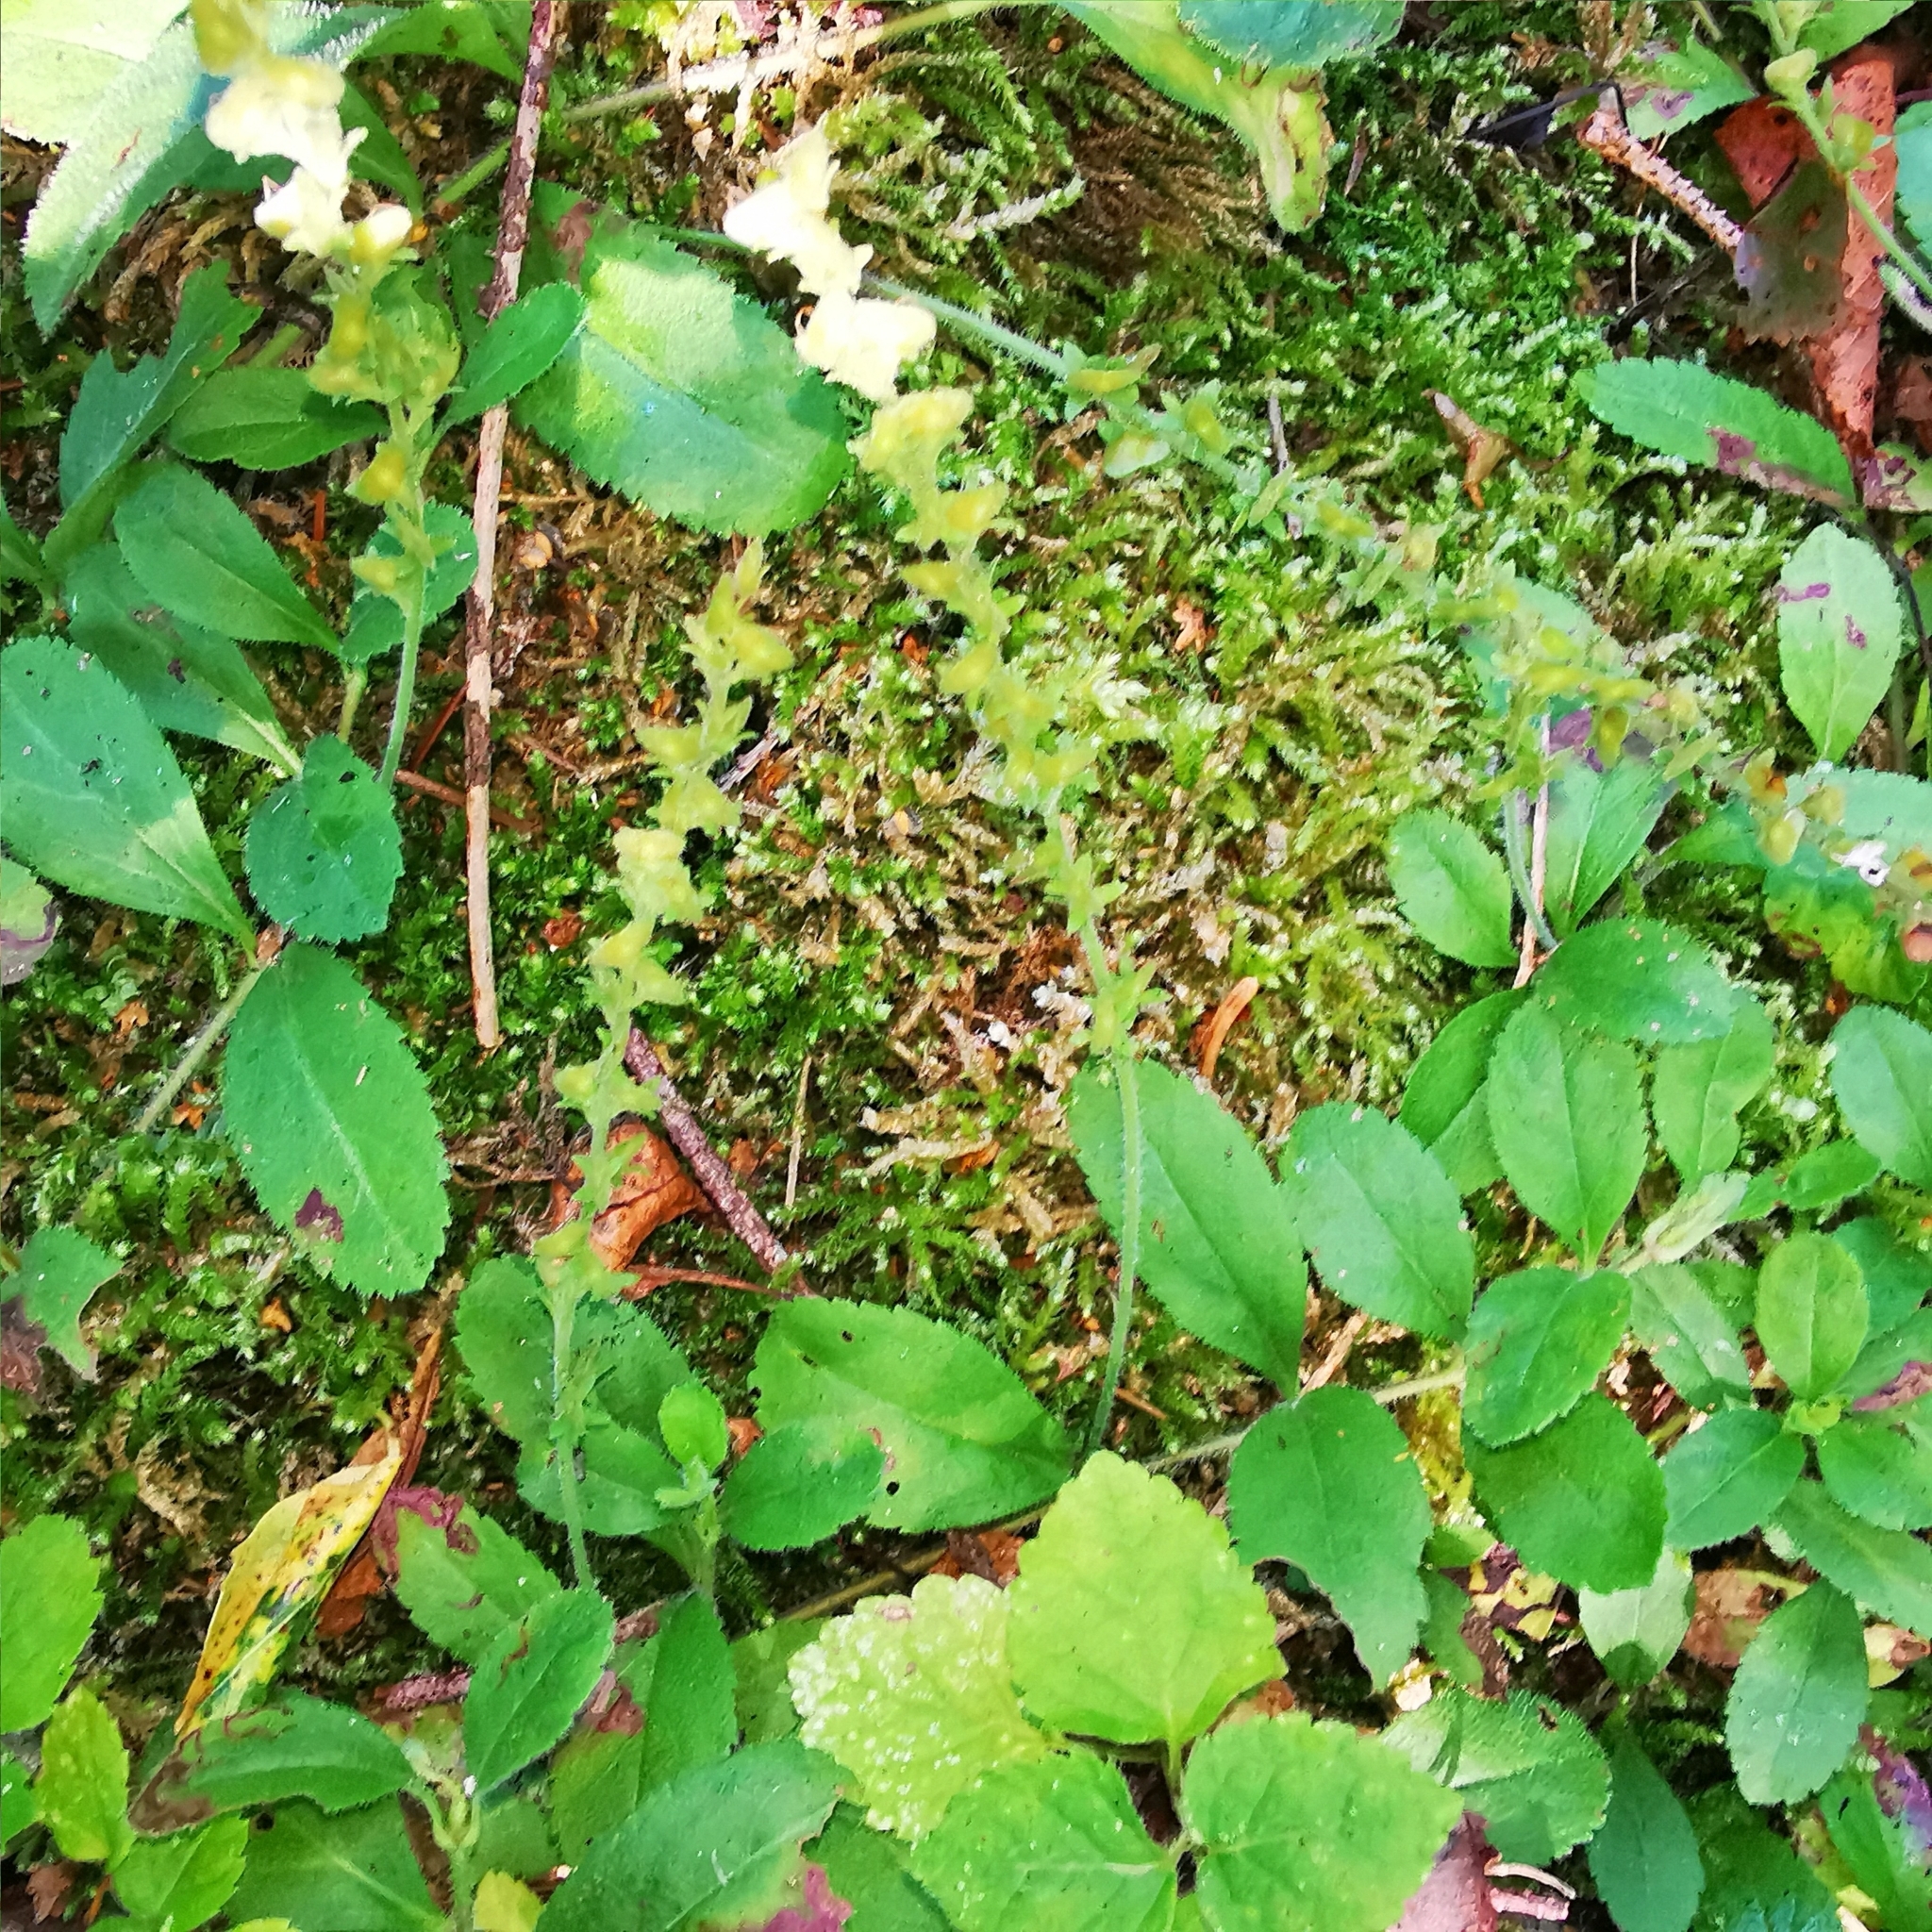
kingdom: Plantae
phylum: Tracheophyta
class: Magnoliopsida
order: Lamiales
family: Plantaginaceae
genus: Veronica
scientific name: Veronica officinalis
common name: Common speedwell
